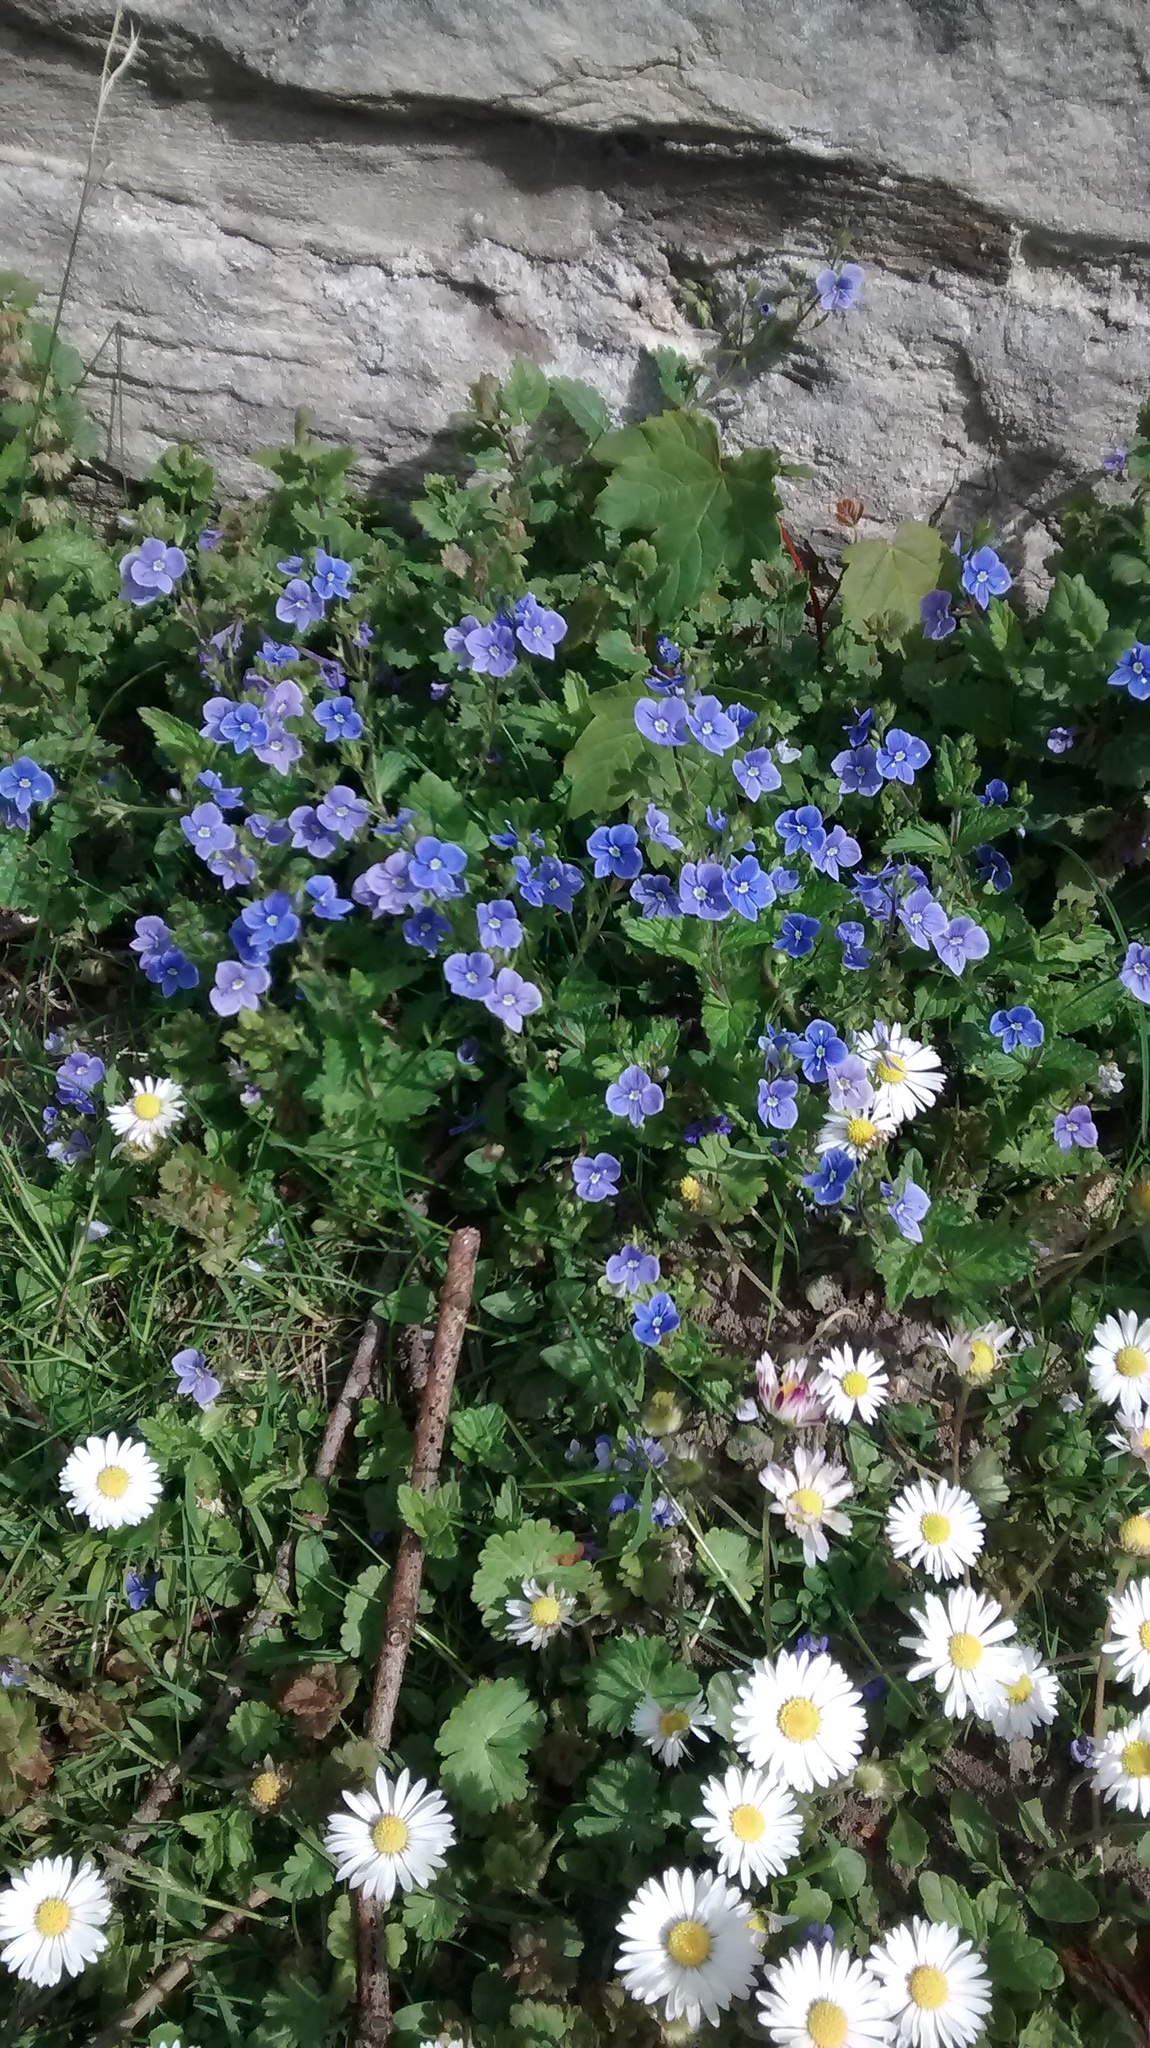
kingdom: Plantae
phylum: Tracheophyta
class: Magnoliopsida
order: Lamiales
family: Plantaginaceae
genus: Veronica
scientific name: Veronica chamaedrys
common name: Germander speedwell
